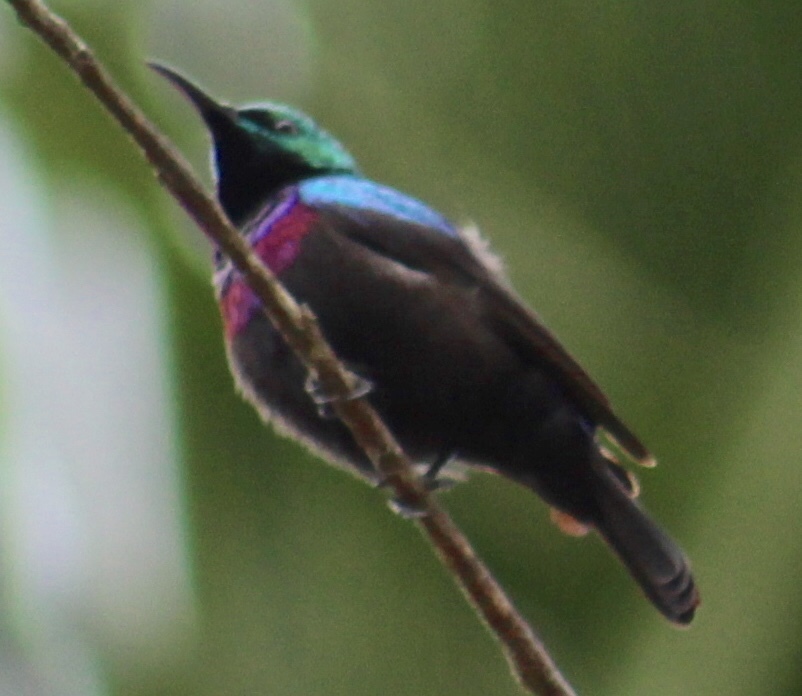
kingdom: Animalia
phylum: Chordata
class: Aves
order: Passeriformes
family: Nectariniidae
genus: Cinnyris
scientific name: Cinnyris bifasciatus
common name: Purple-banded sunbird
